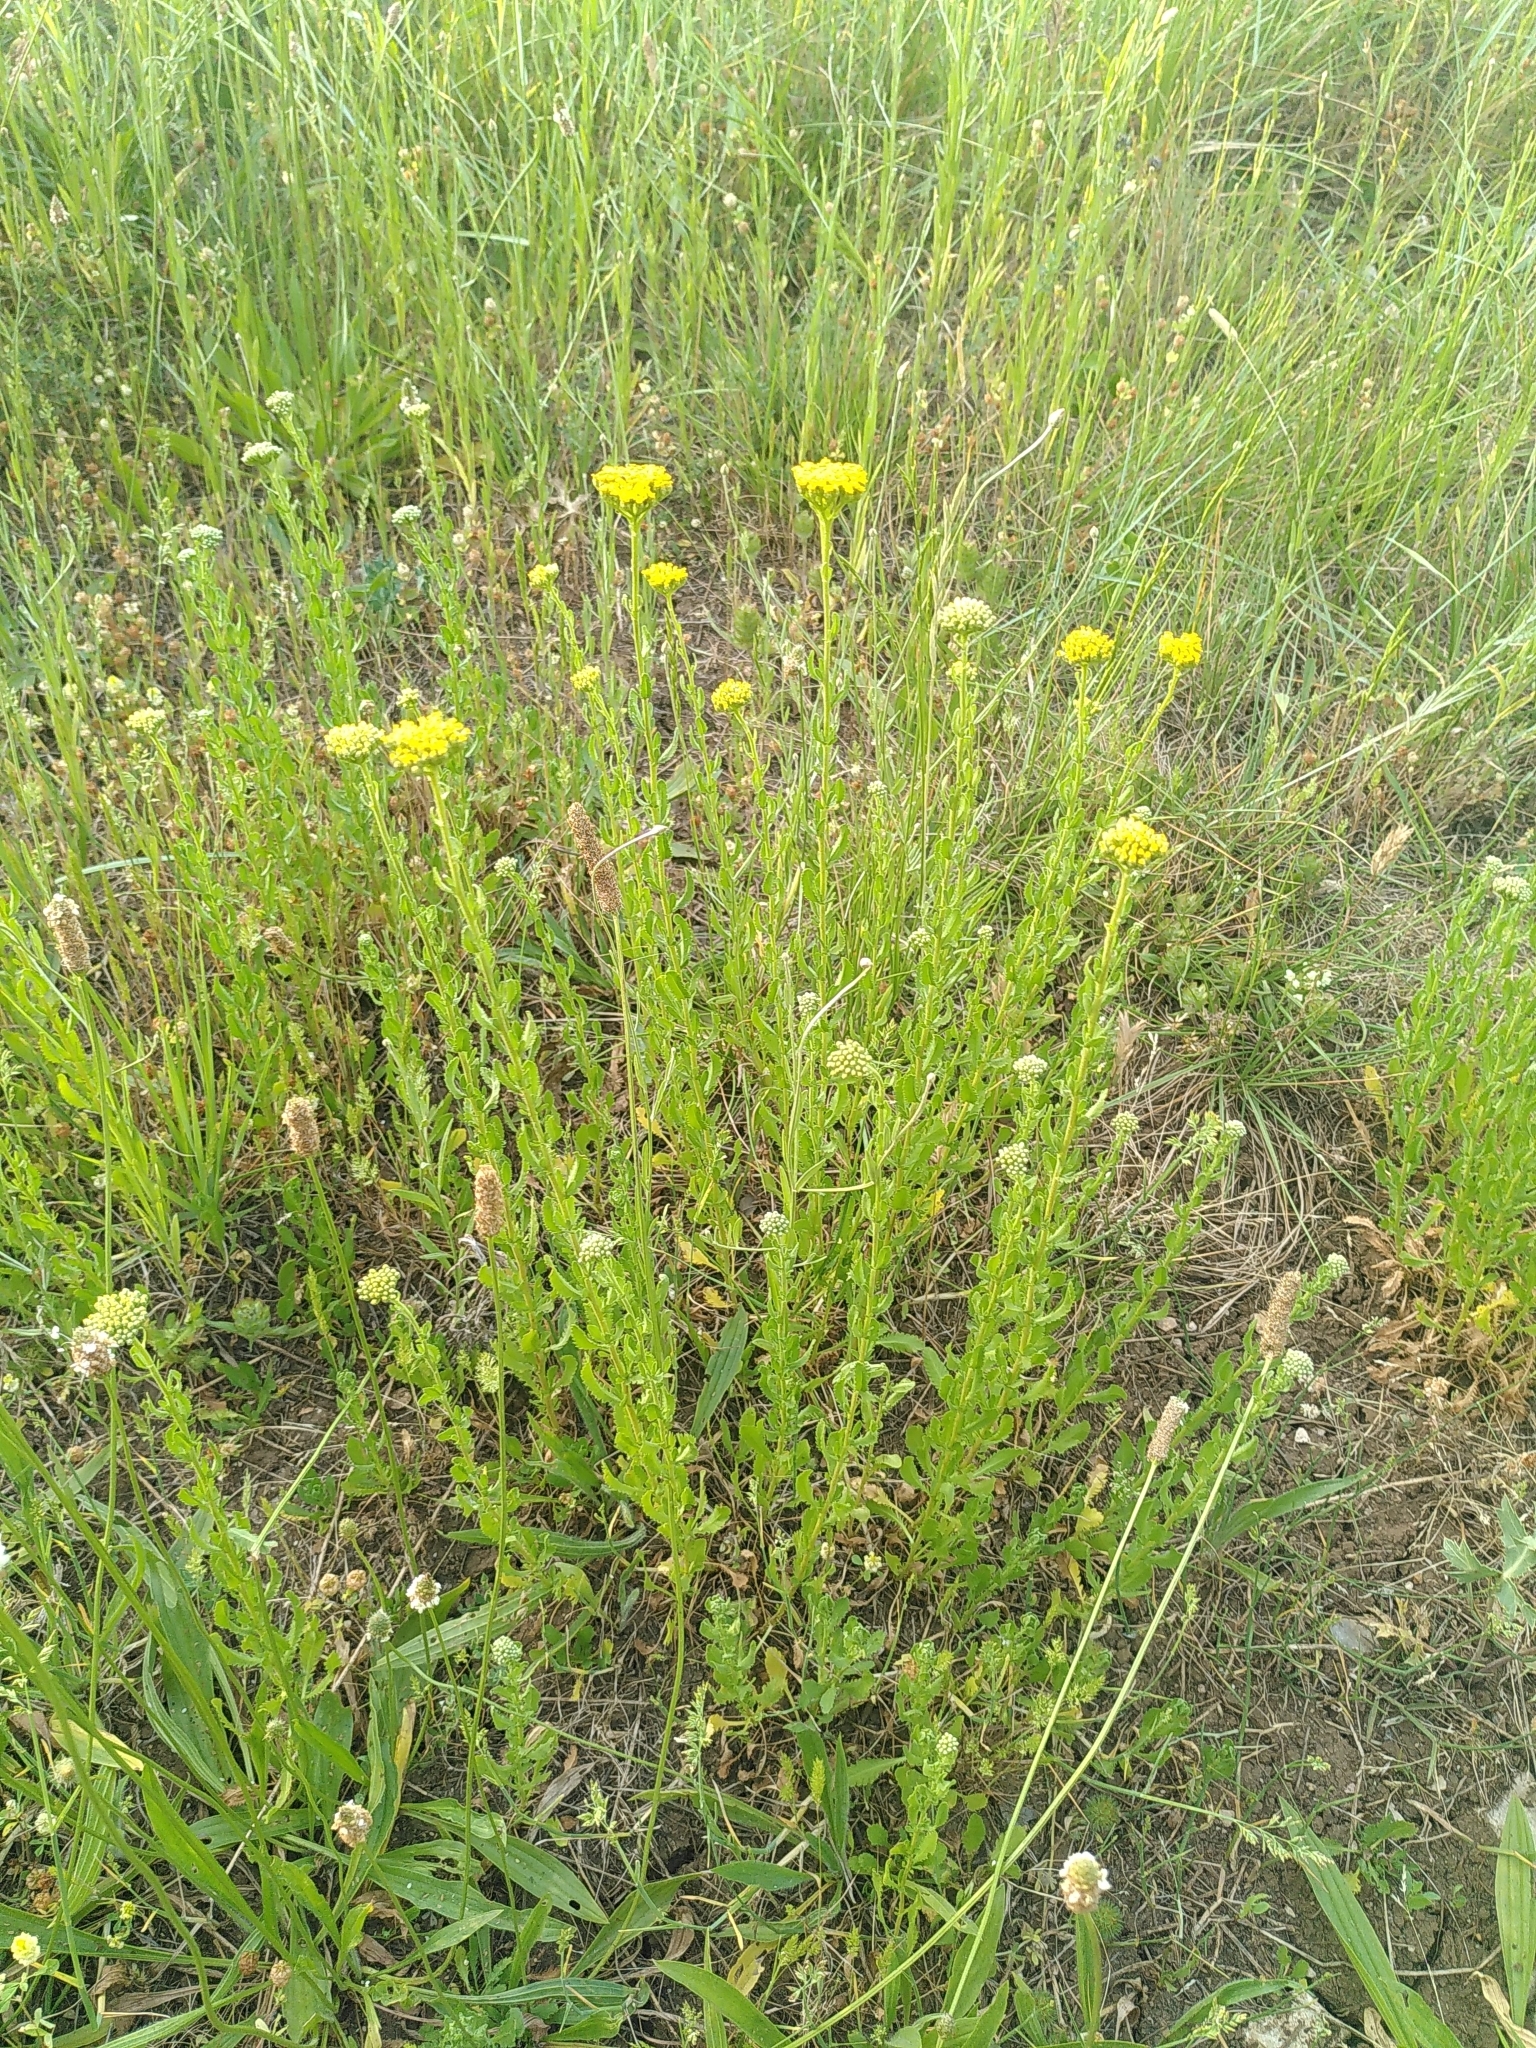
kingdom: Plantae
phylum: Tracheophyta
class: Magnoliopsida
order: Asterales
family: Asteraceae
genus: Achillea
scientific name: Achillea ageratum
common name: Sweet-nancy
